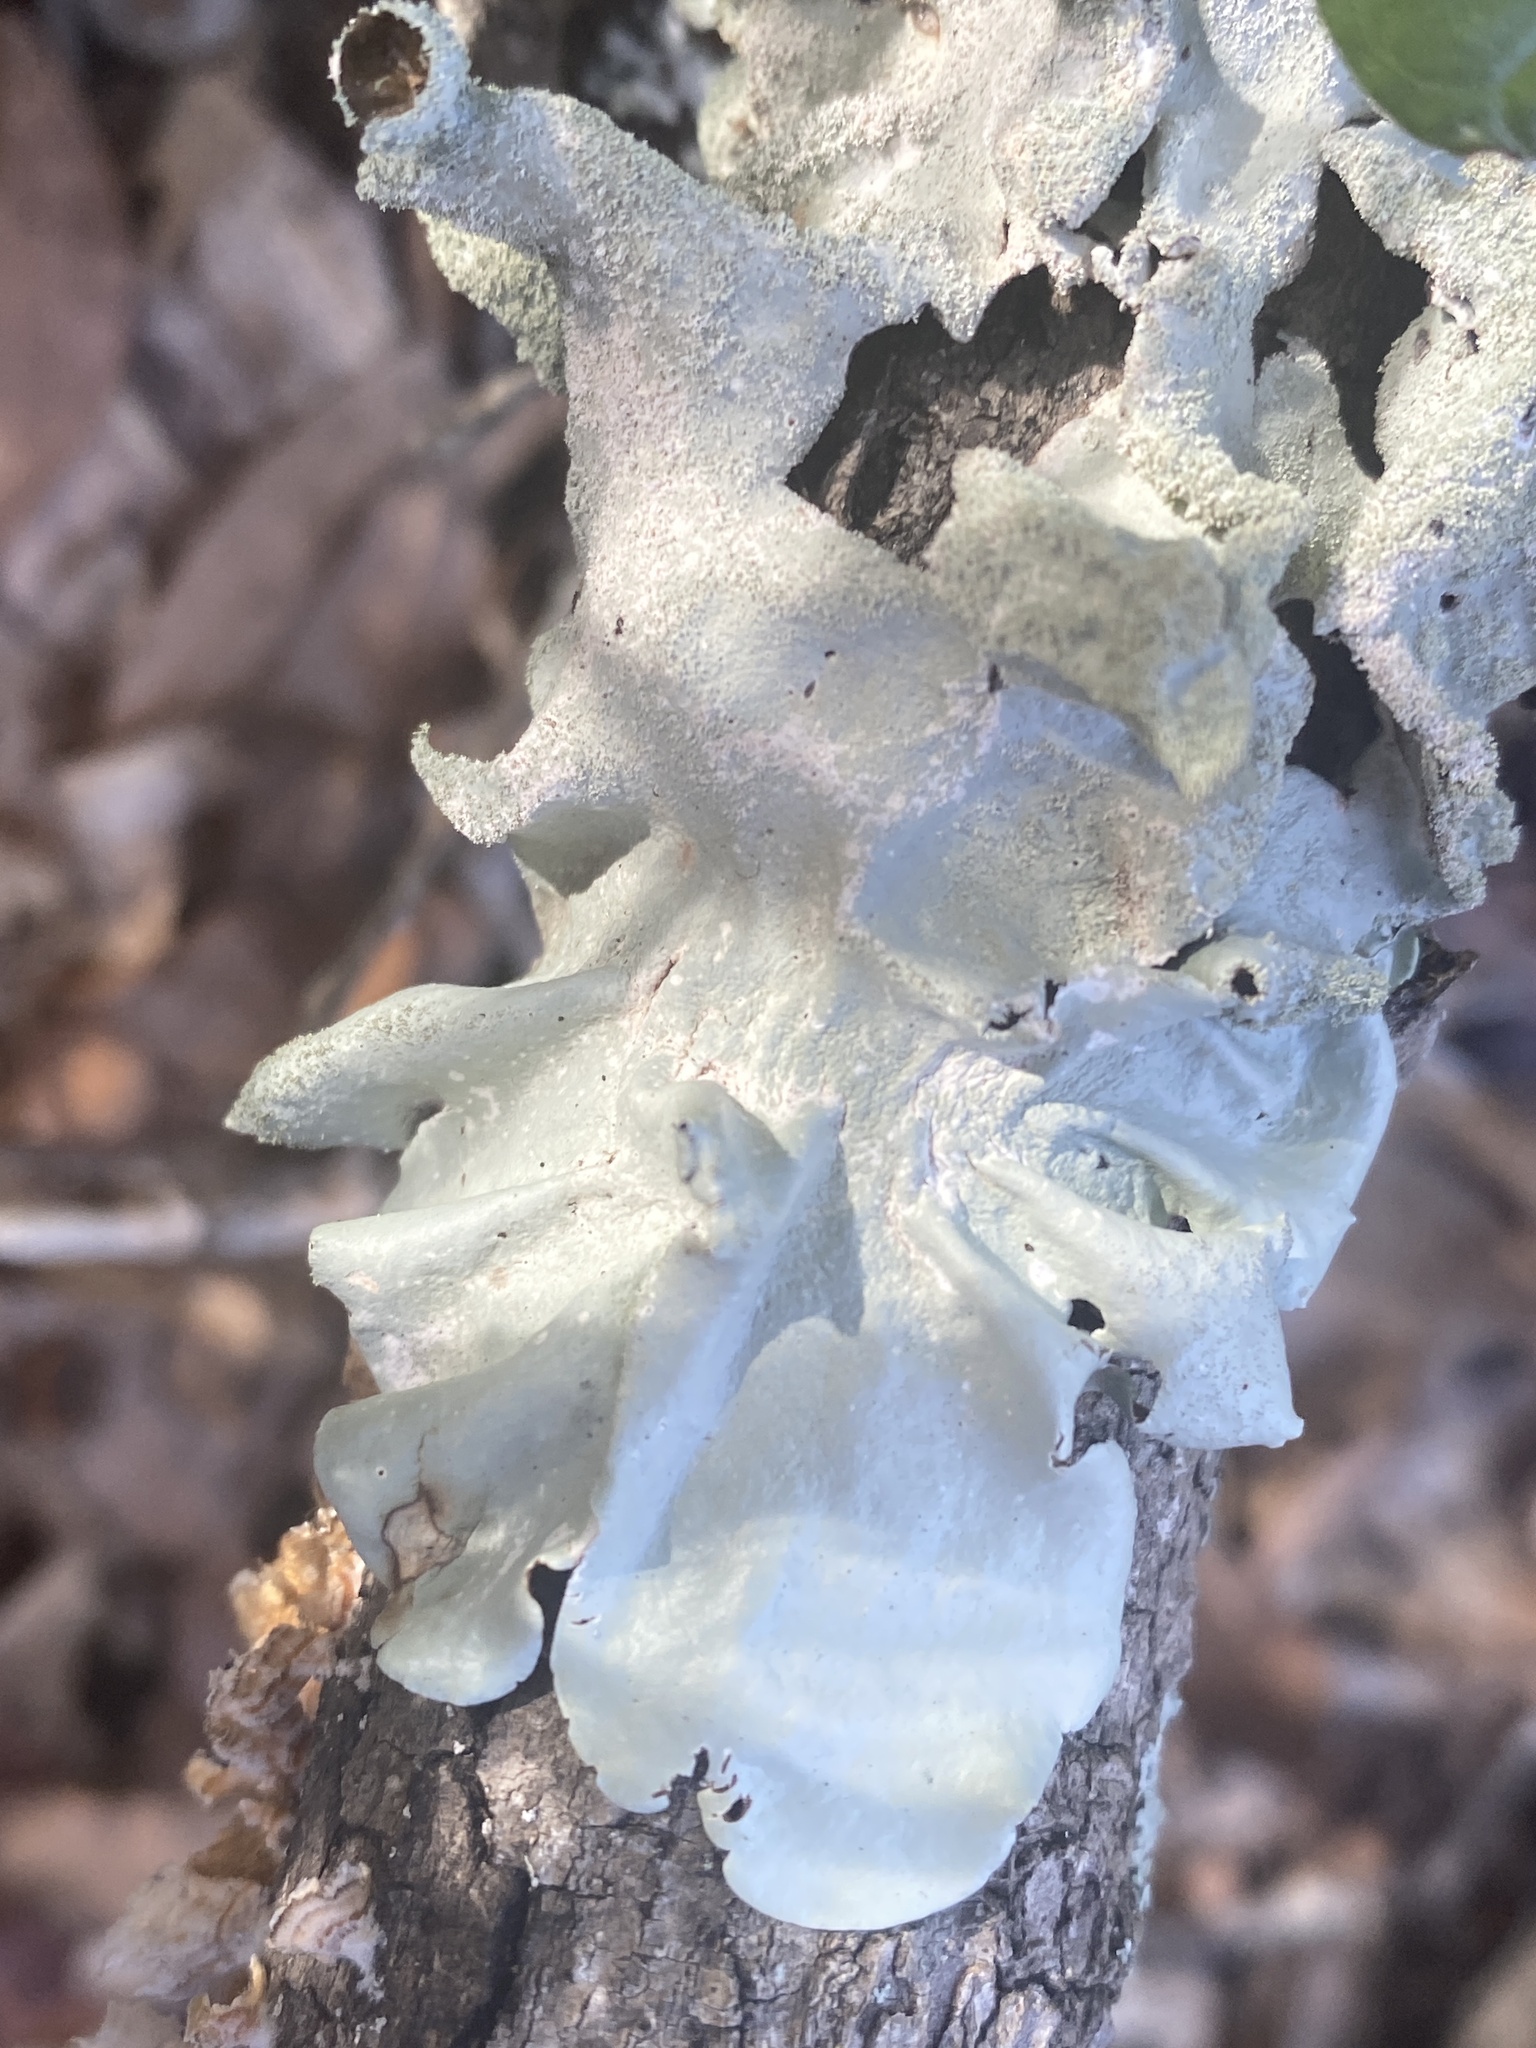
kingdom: Fungi
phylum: Ascomycota
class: Lecanoromycetes
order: Lecanorales
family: Parmeliaceae
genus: Parmotrema
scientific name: Parmotrema tinctorum
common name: Old gray ruffles
